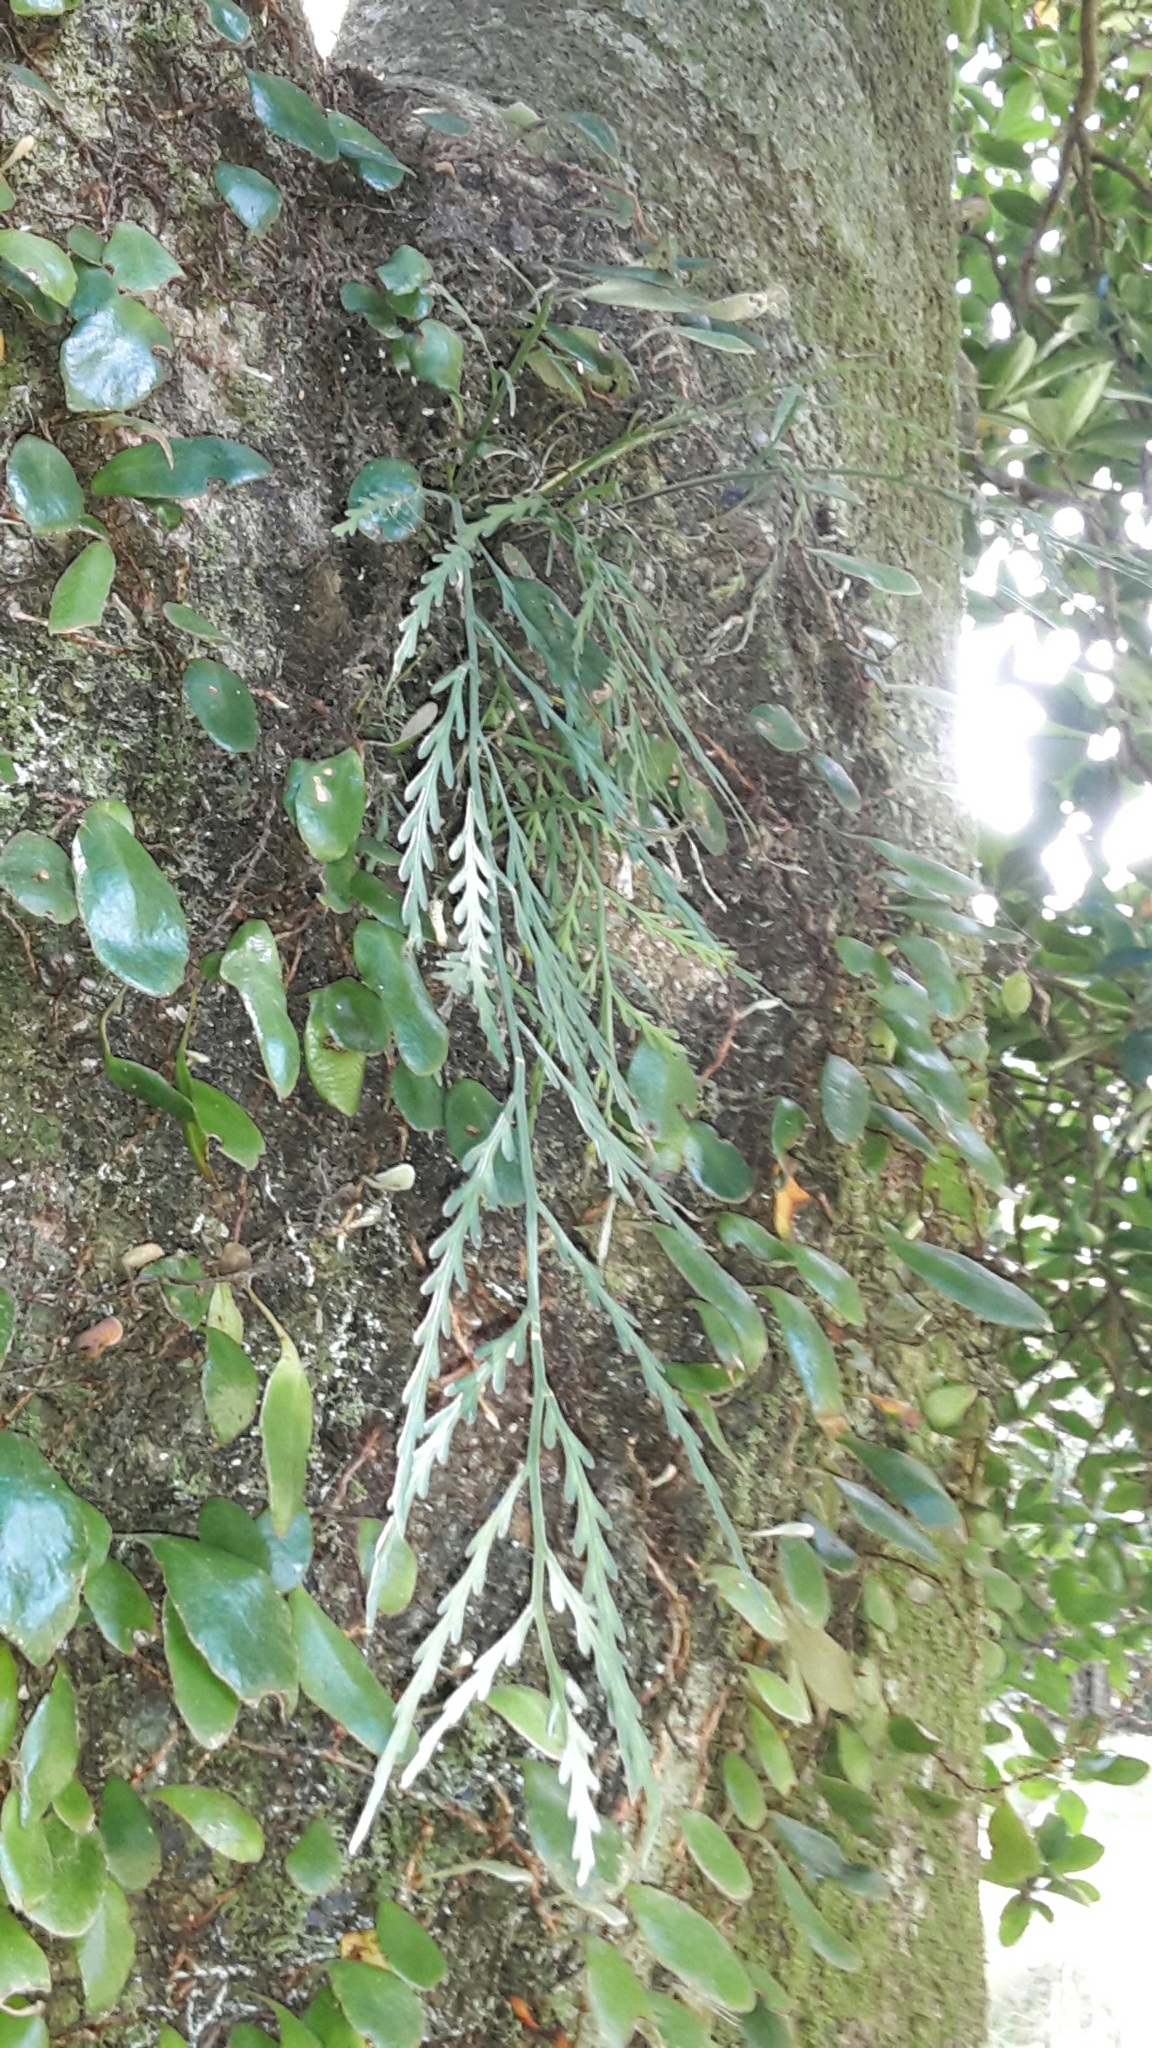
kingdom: Plantae
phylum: Tracheophyta
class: Polypodiopsida
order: Polypodiales
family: Aspleniaceae
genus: Asplenium
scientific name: Asplenium flaccidum
